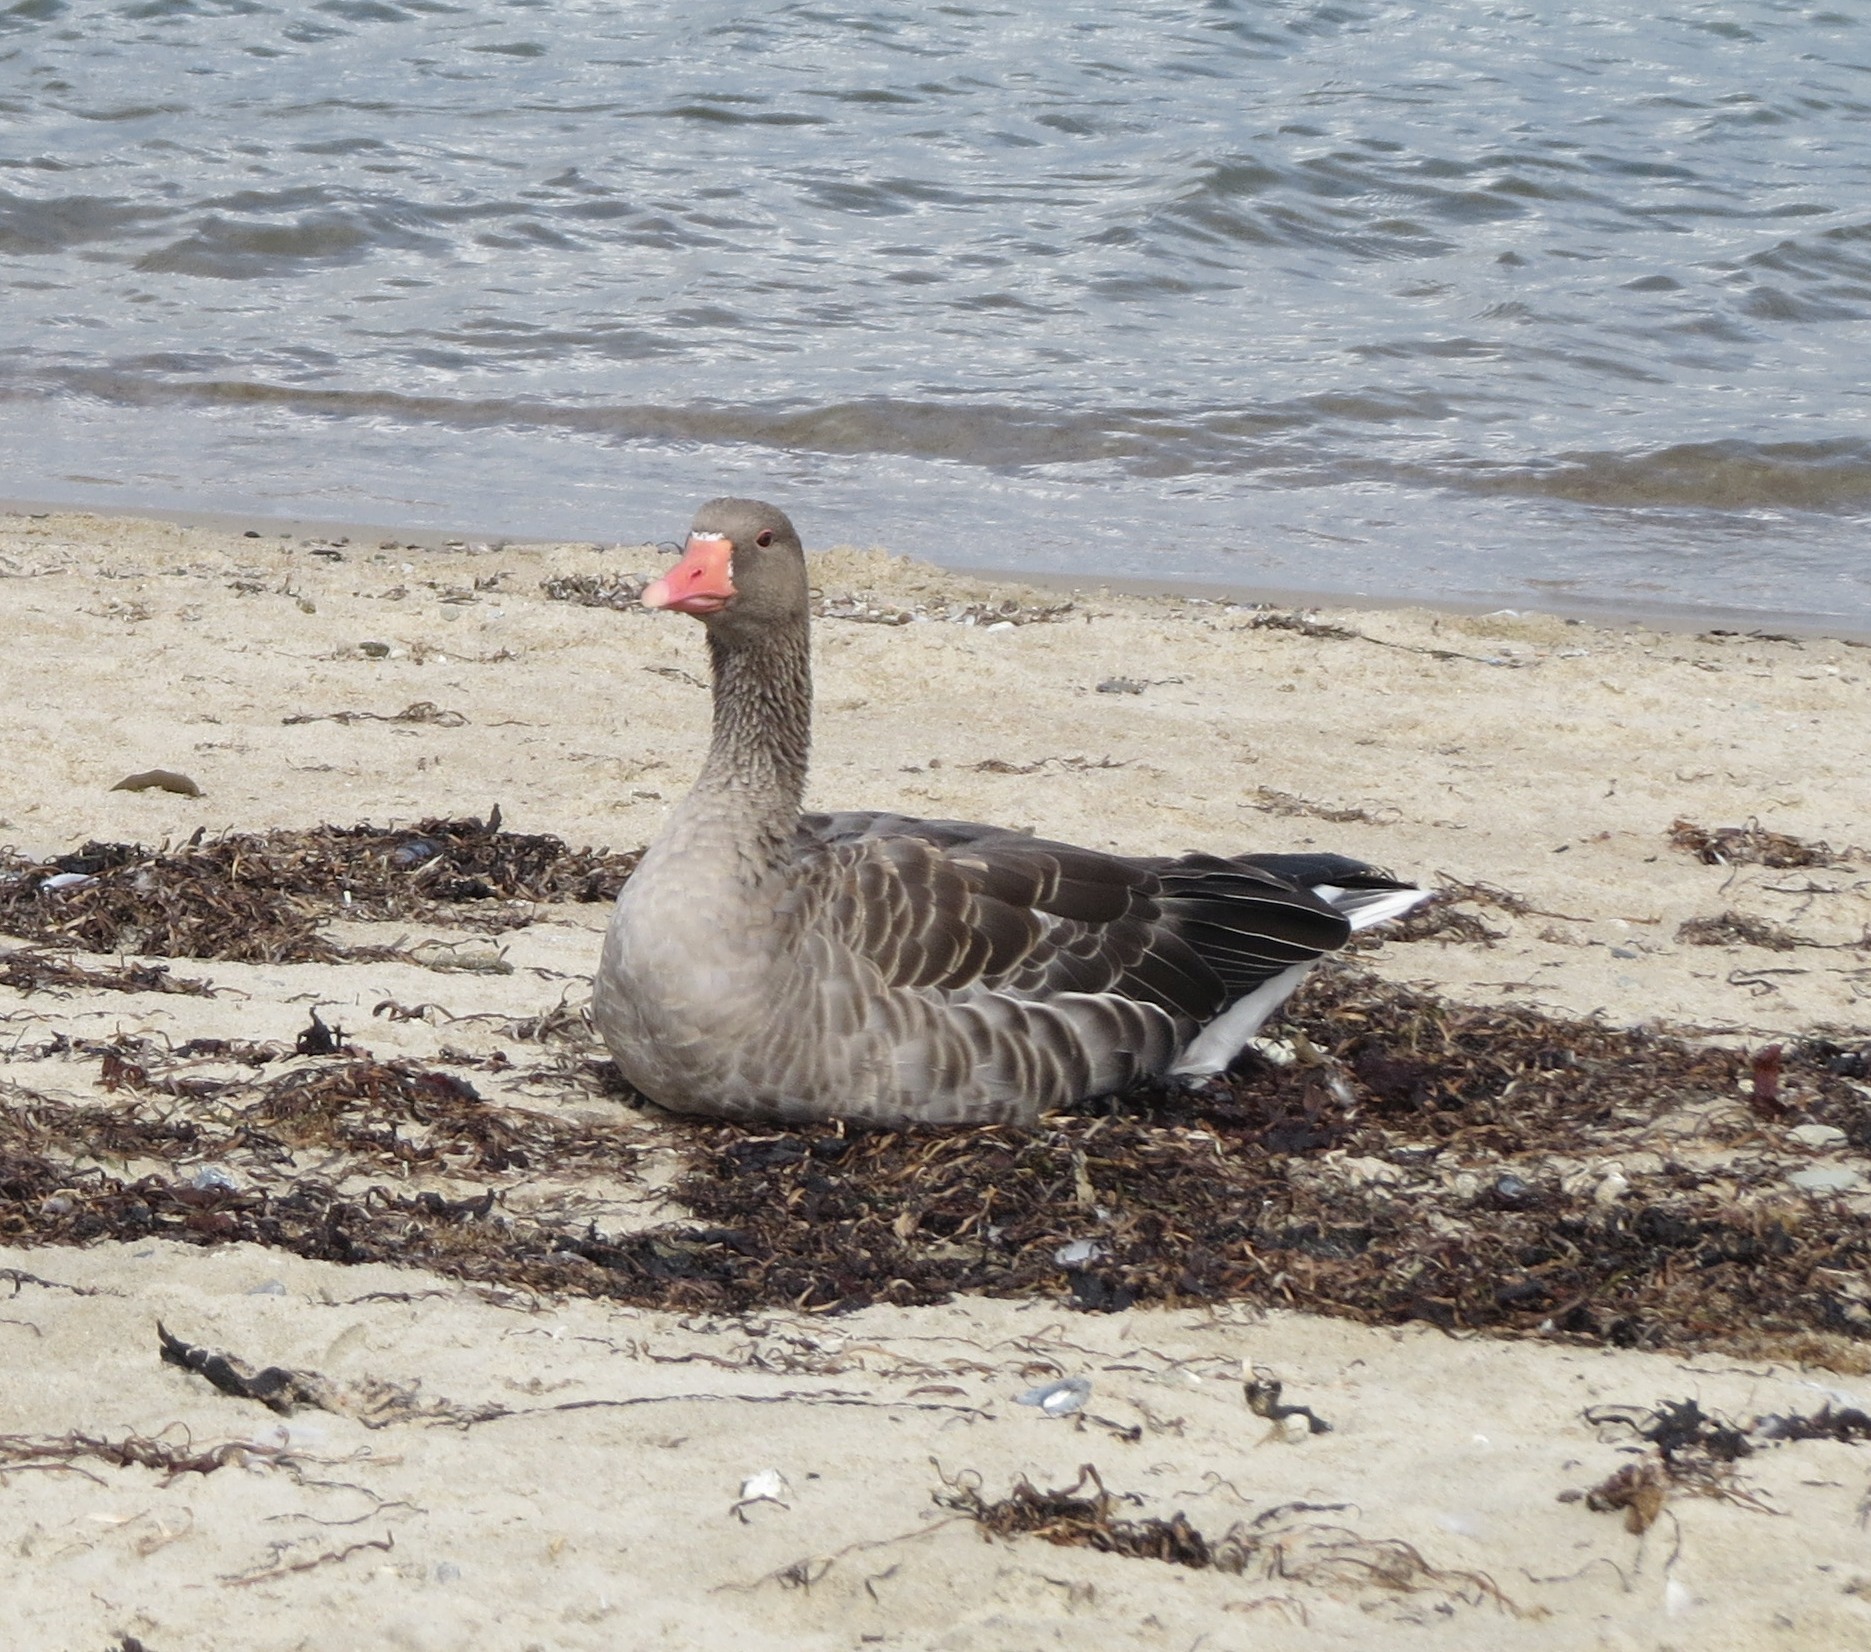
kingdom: Animalia
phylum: Chordata
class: Aves
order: Anseriformes
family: Anatidae
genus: Anser
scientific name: Anser anser
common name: Greylag goose
